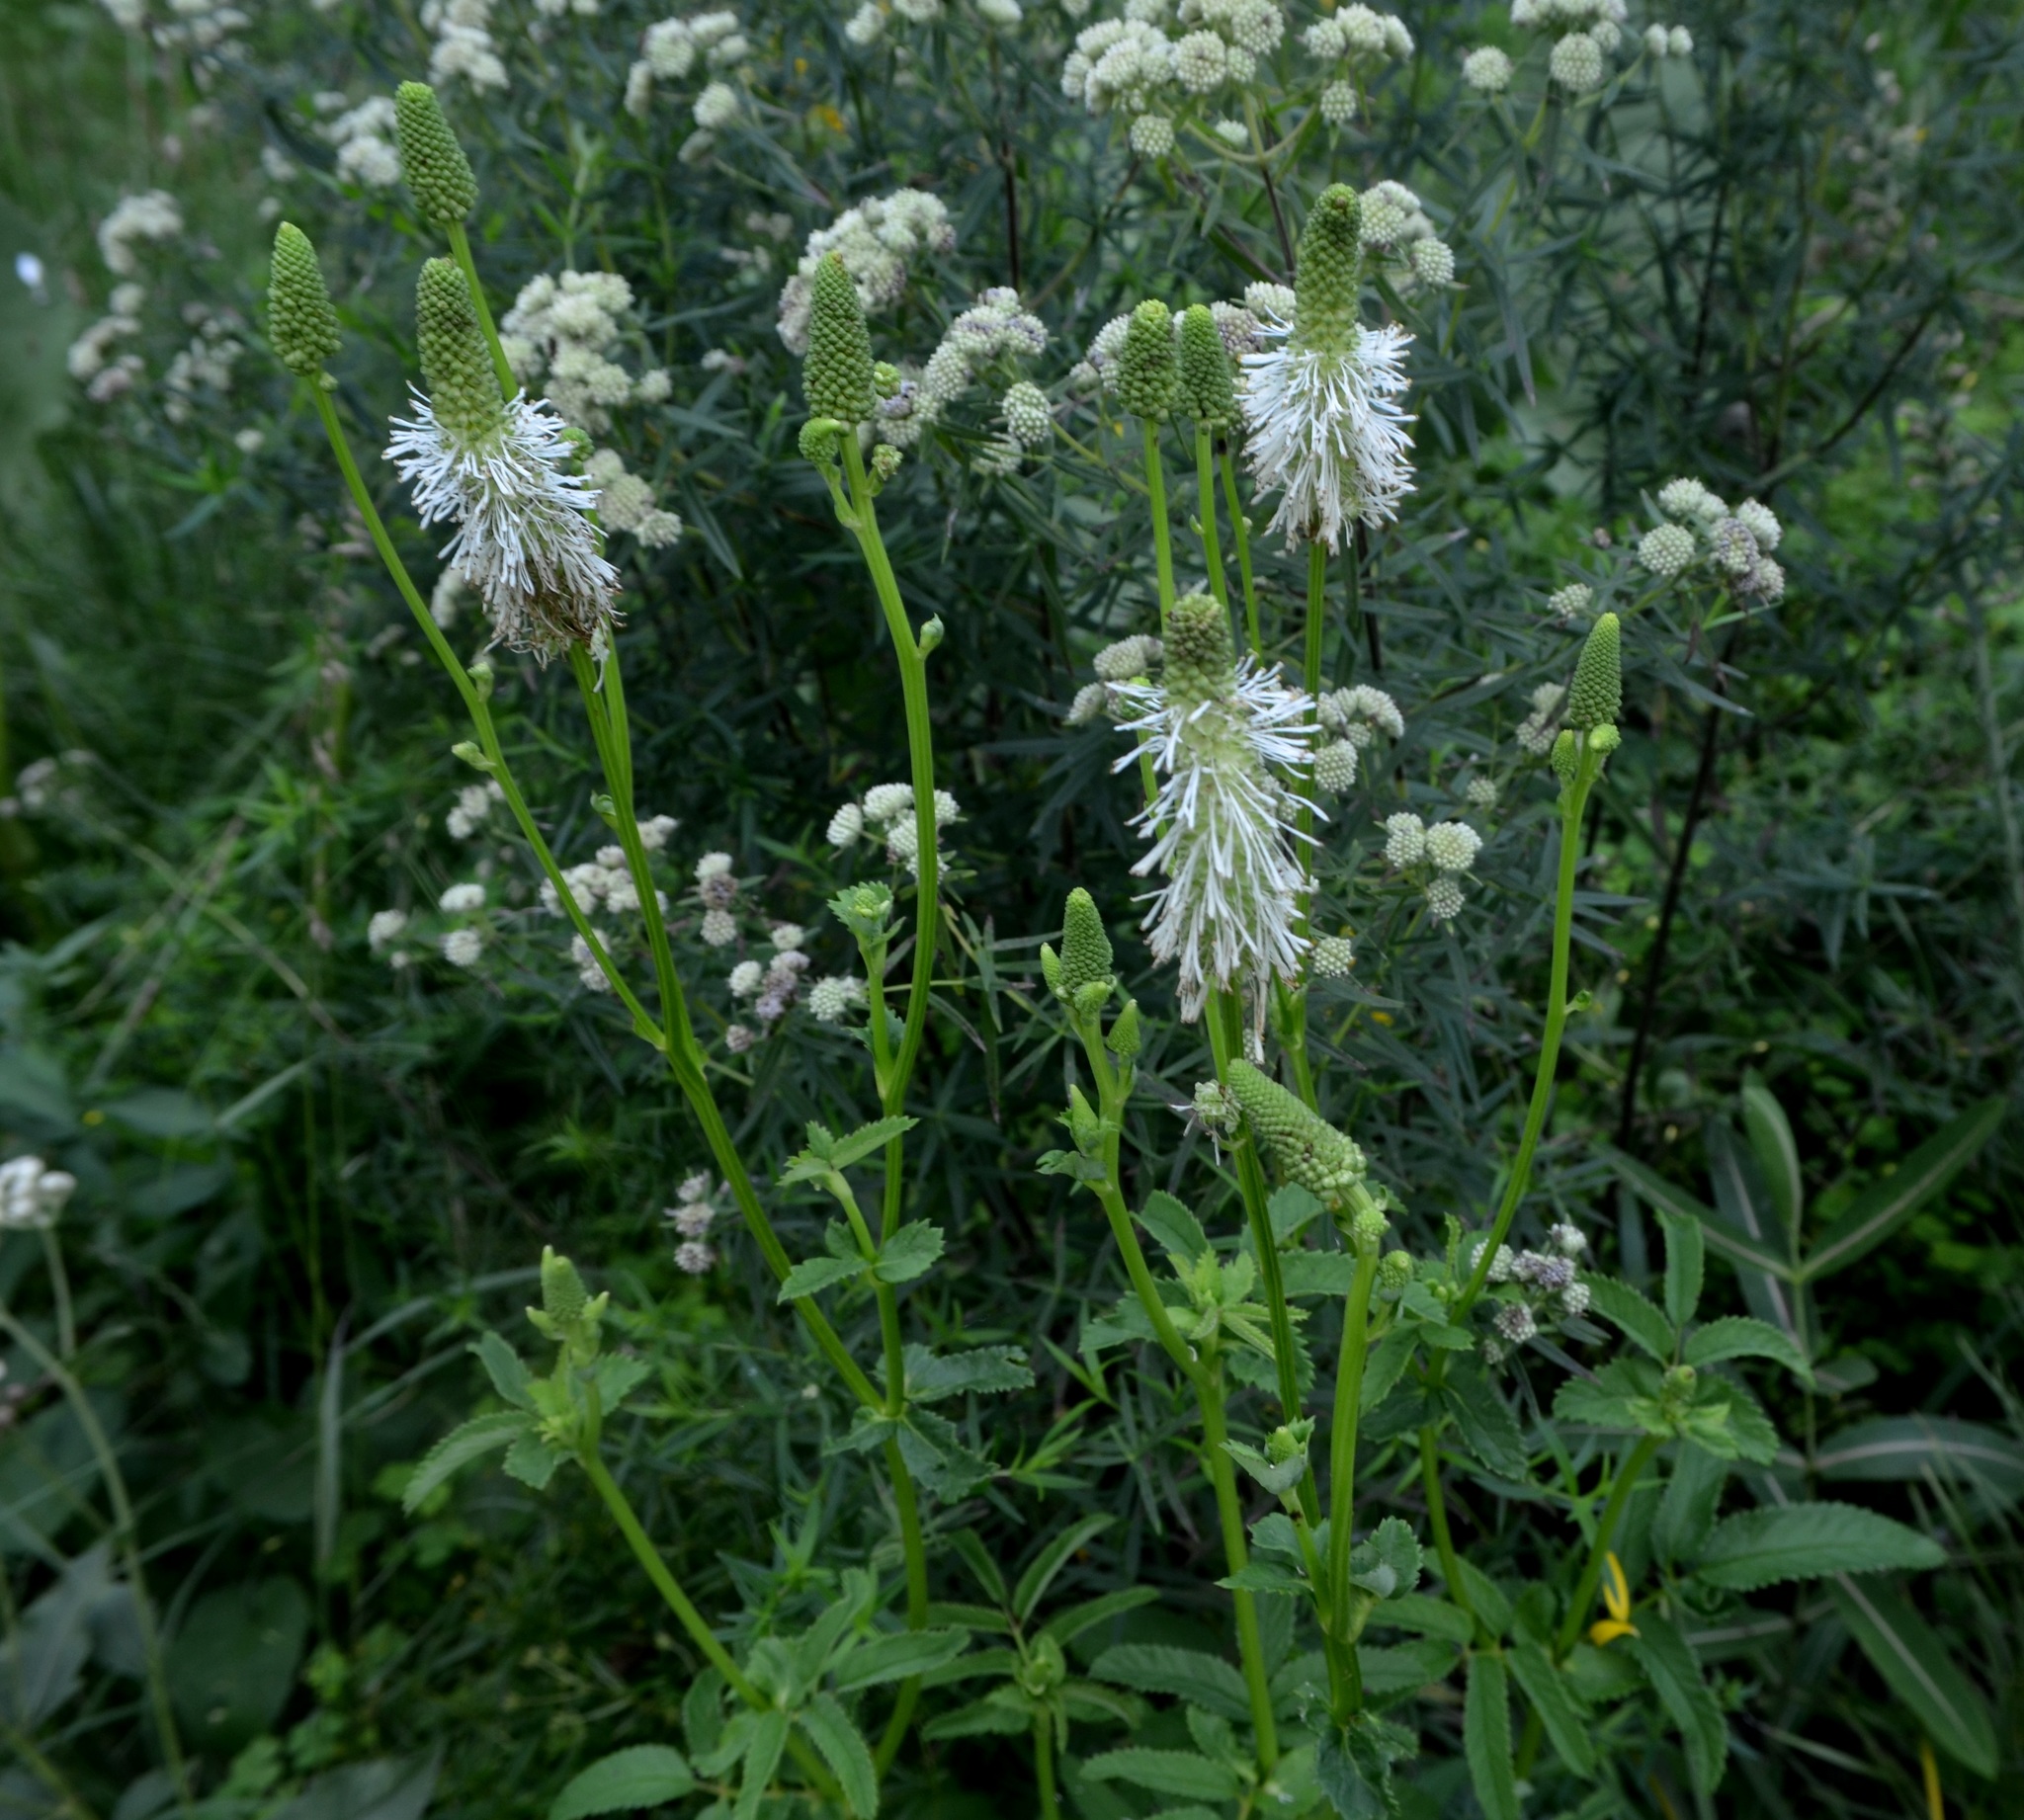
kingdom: Plantae
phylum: Tracheophyta
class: Magnoliopsida
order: Rosales
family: Rosaceae
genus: Sanguisorba
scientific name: Sanguisorba canadensis
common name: White burnet
